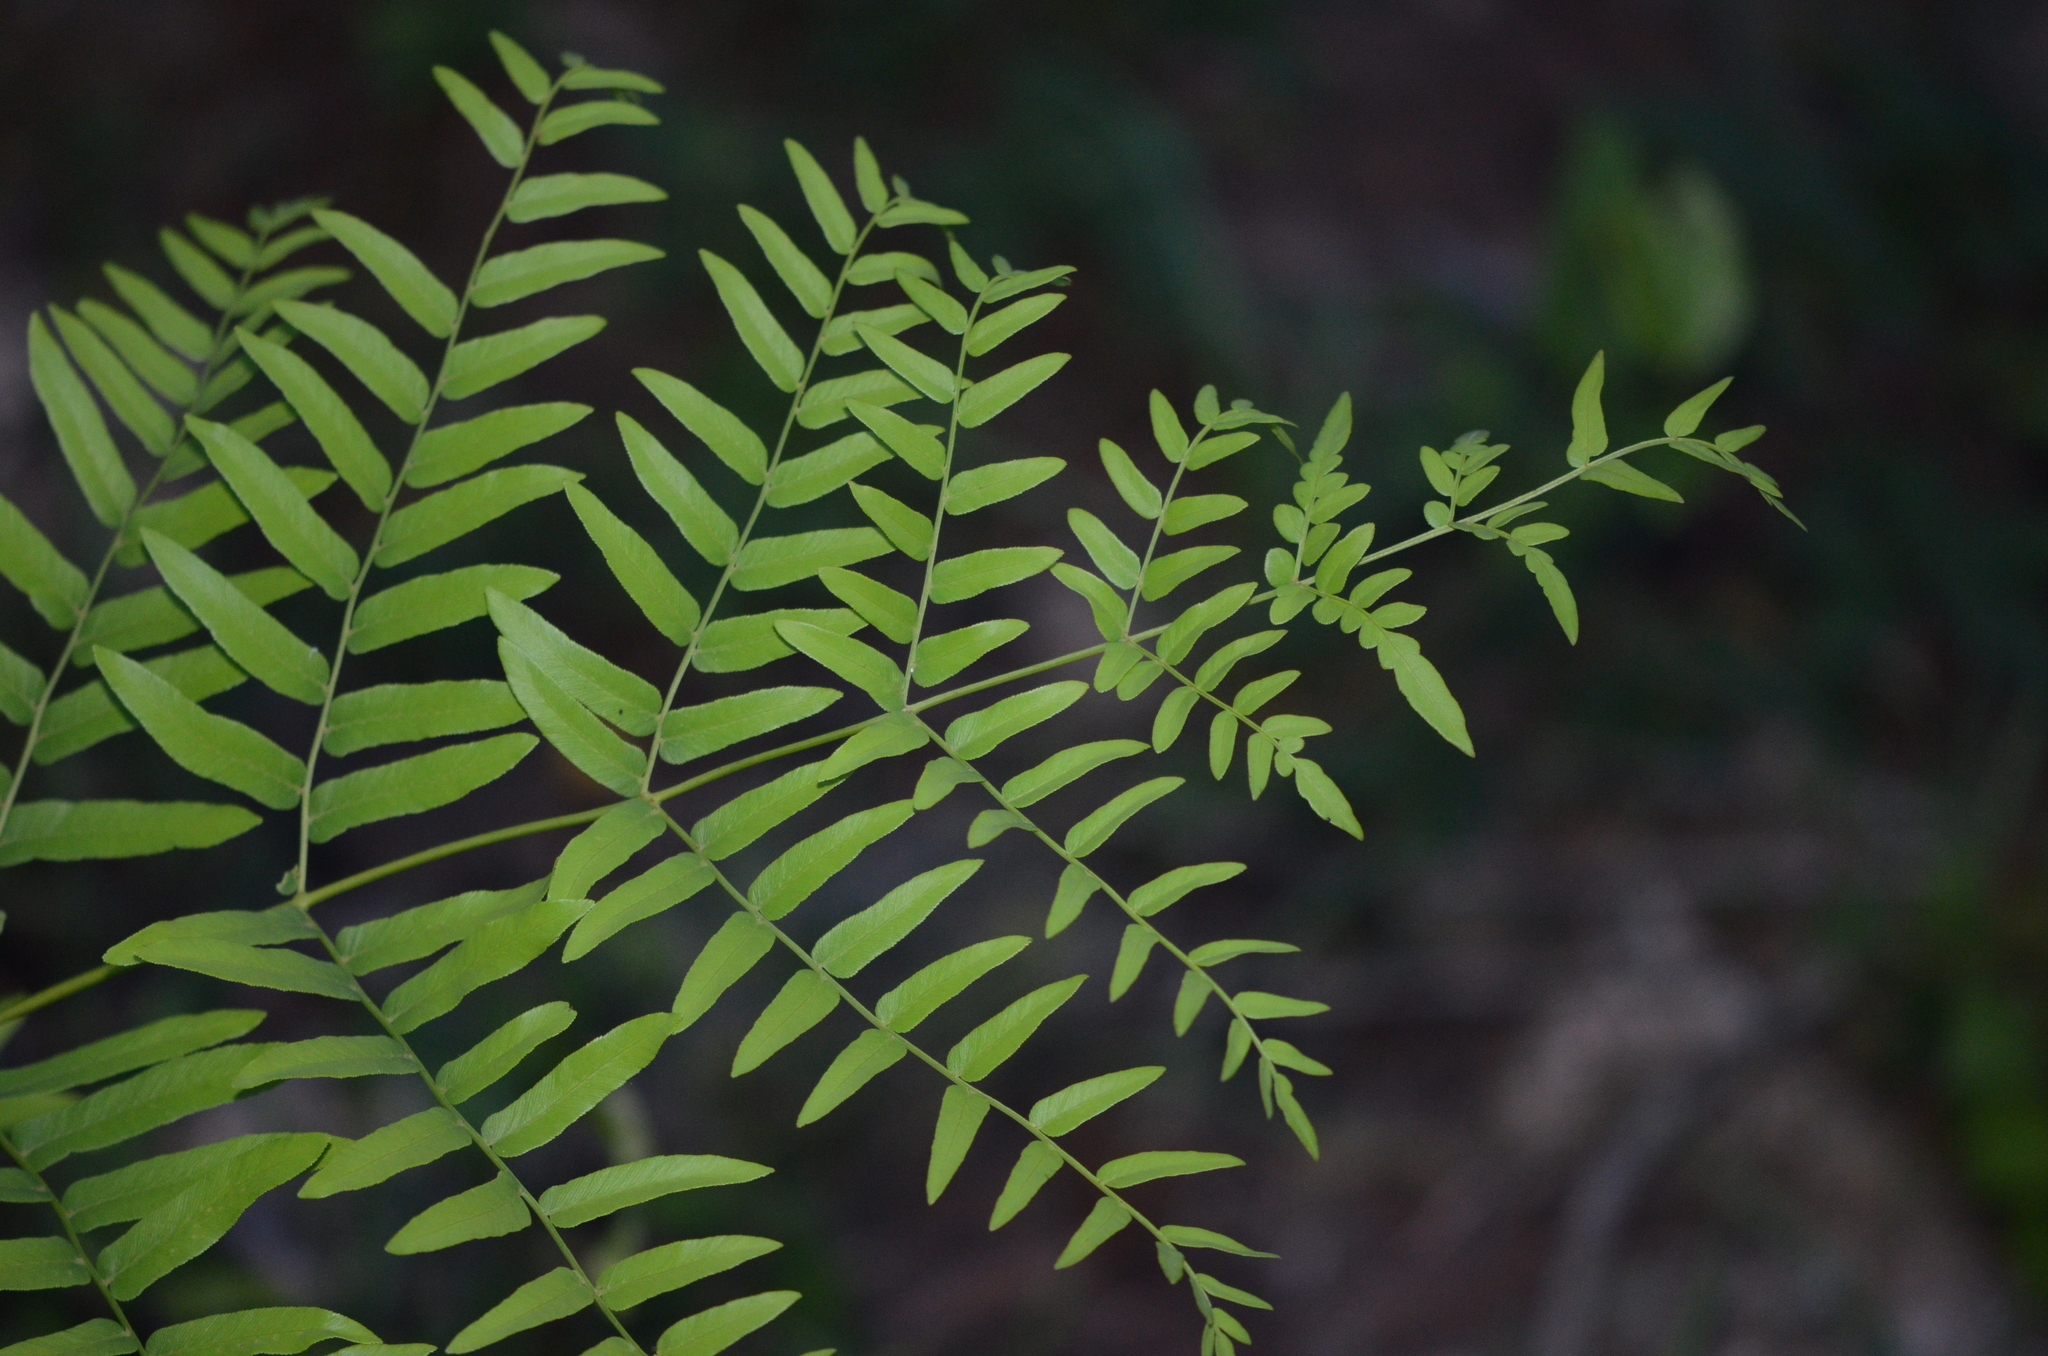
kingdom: Plantae
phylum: Tracheophyta
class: Polypodiopsida
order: Osmundales
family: Osmundaceae
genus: Osmunda
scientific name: Osmunda spectabilis
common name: American royal fern
